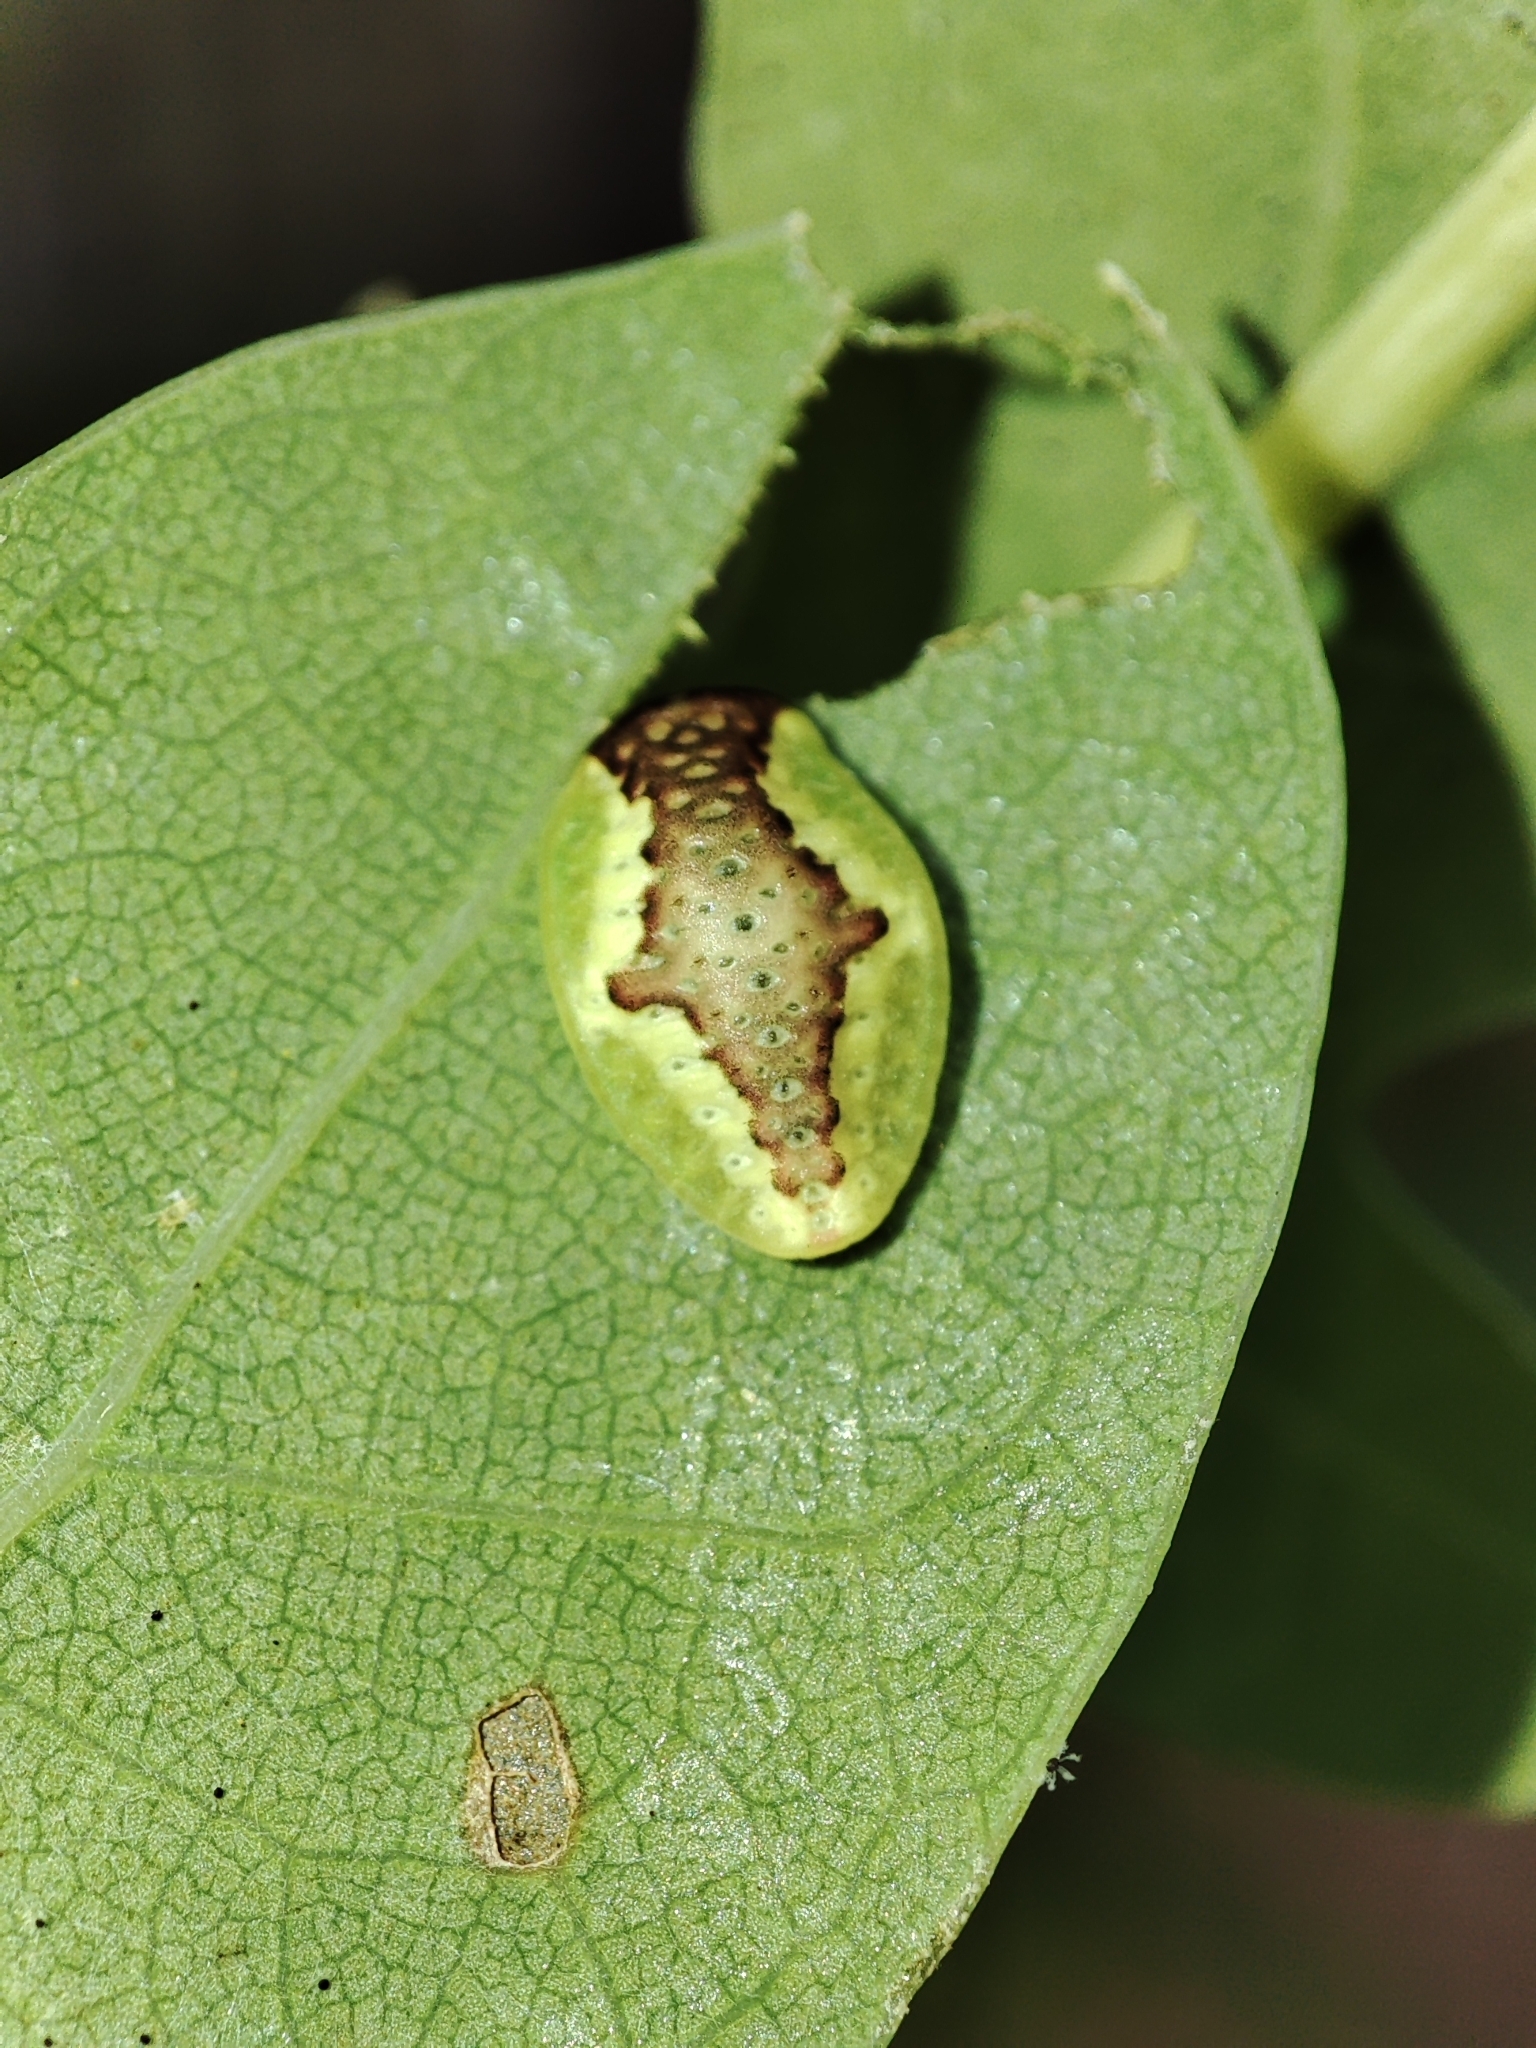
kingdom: Animalia
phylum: Arthropoda
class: Insecta
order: Lepidoptera
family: Limacodidae
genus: Heterogenea
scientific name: Heterogenea asella
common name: Triangle
